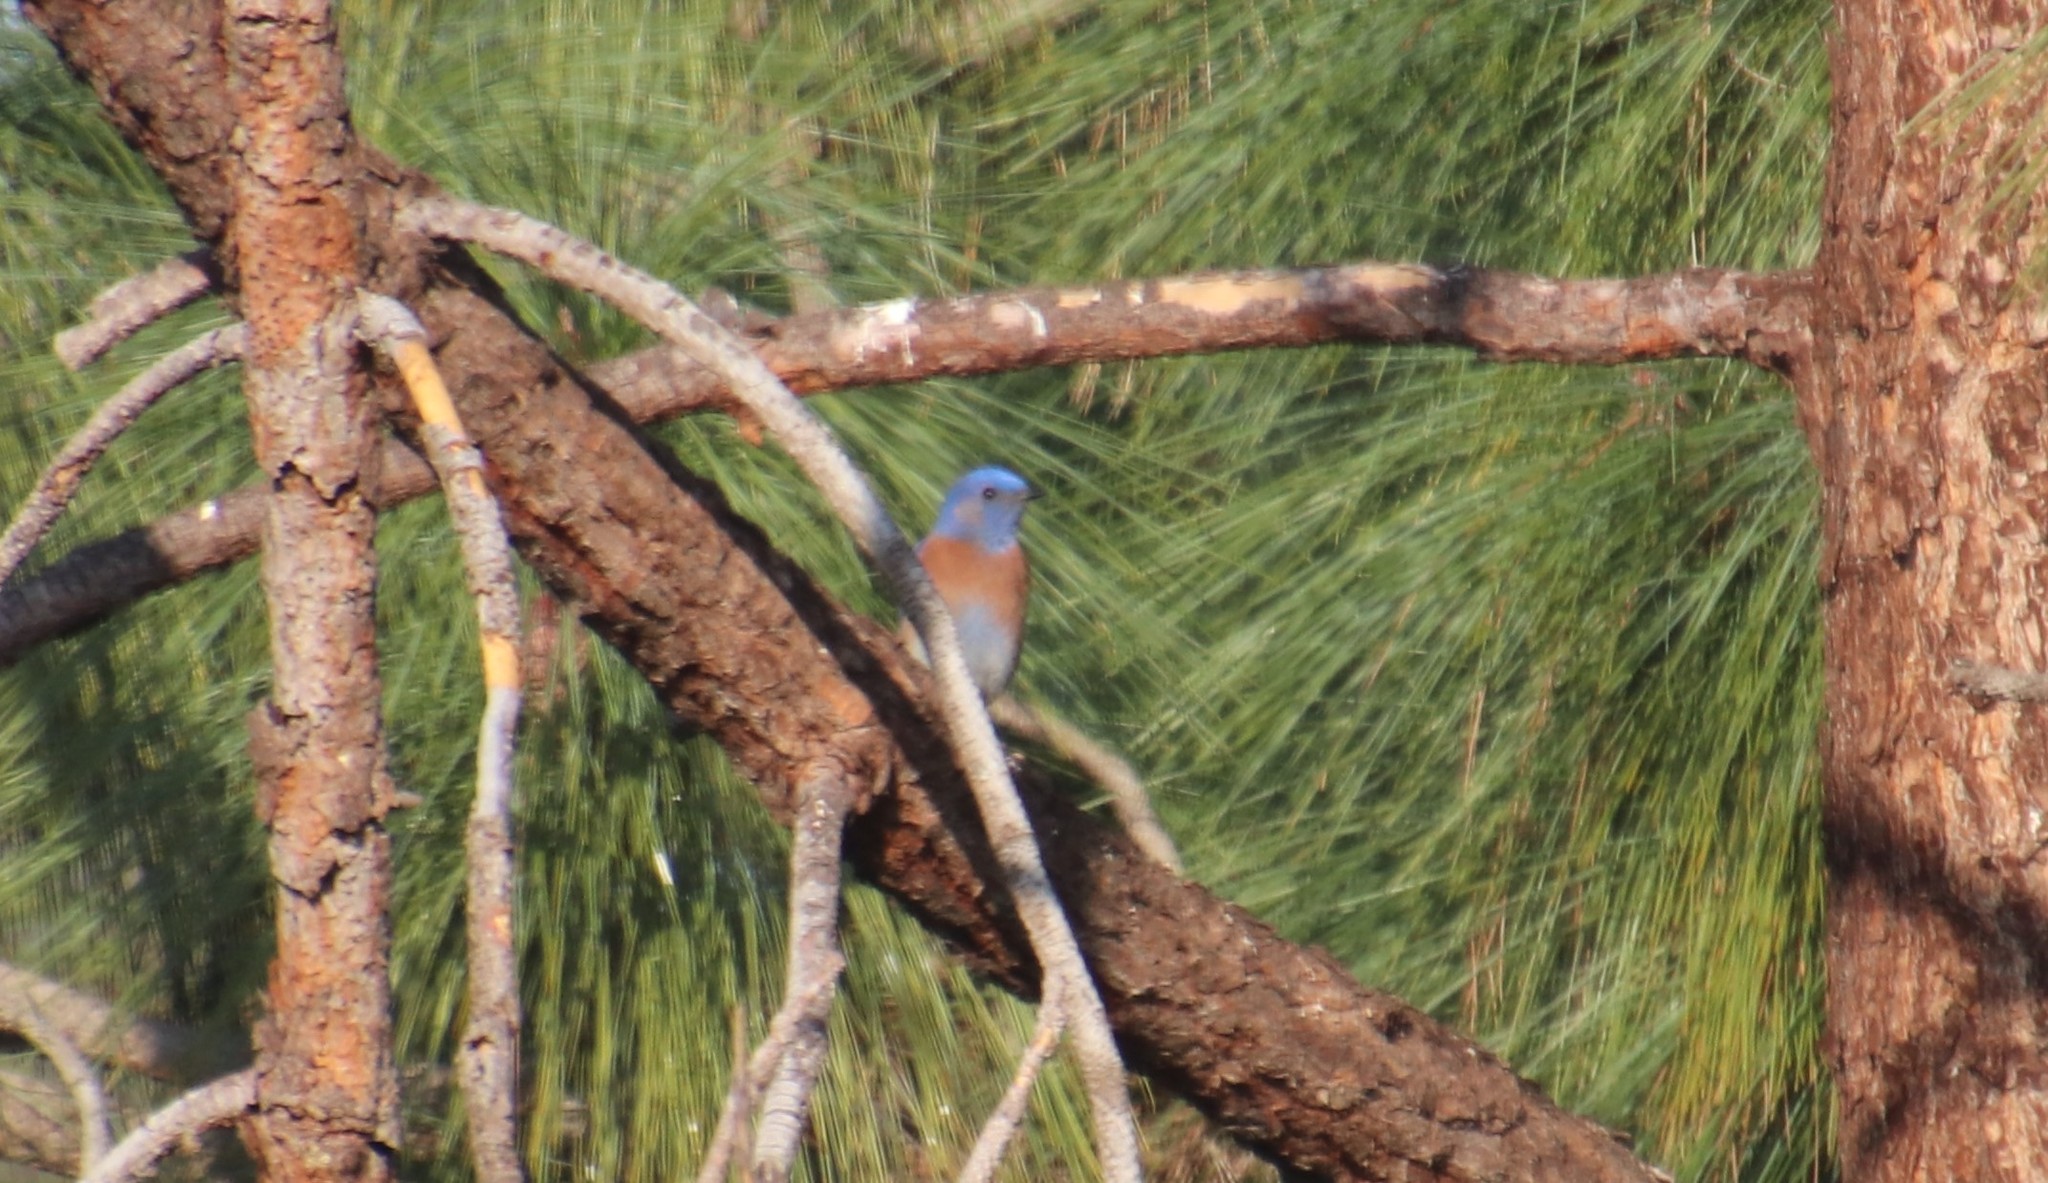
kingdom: Animalia
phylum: Chordata
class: Aves
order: Passeriformes
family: Turdidae
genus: Sialia
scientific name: Sialia mexicana
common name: Western bluebird
